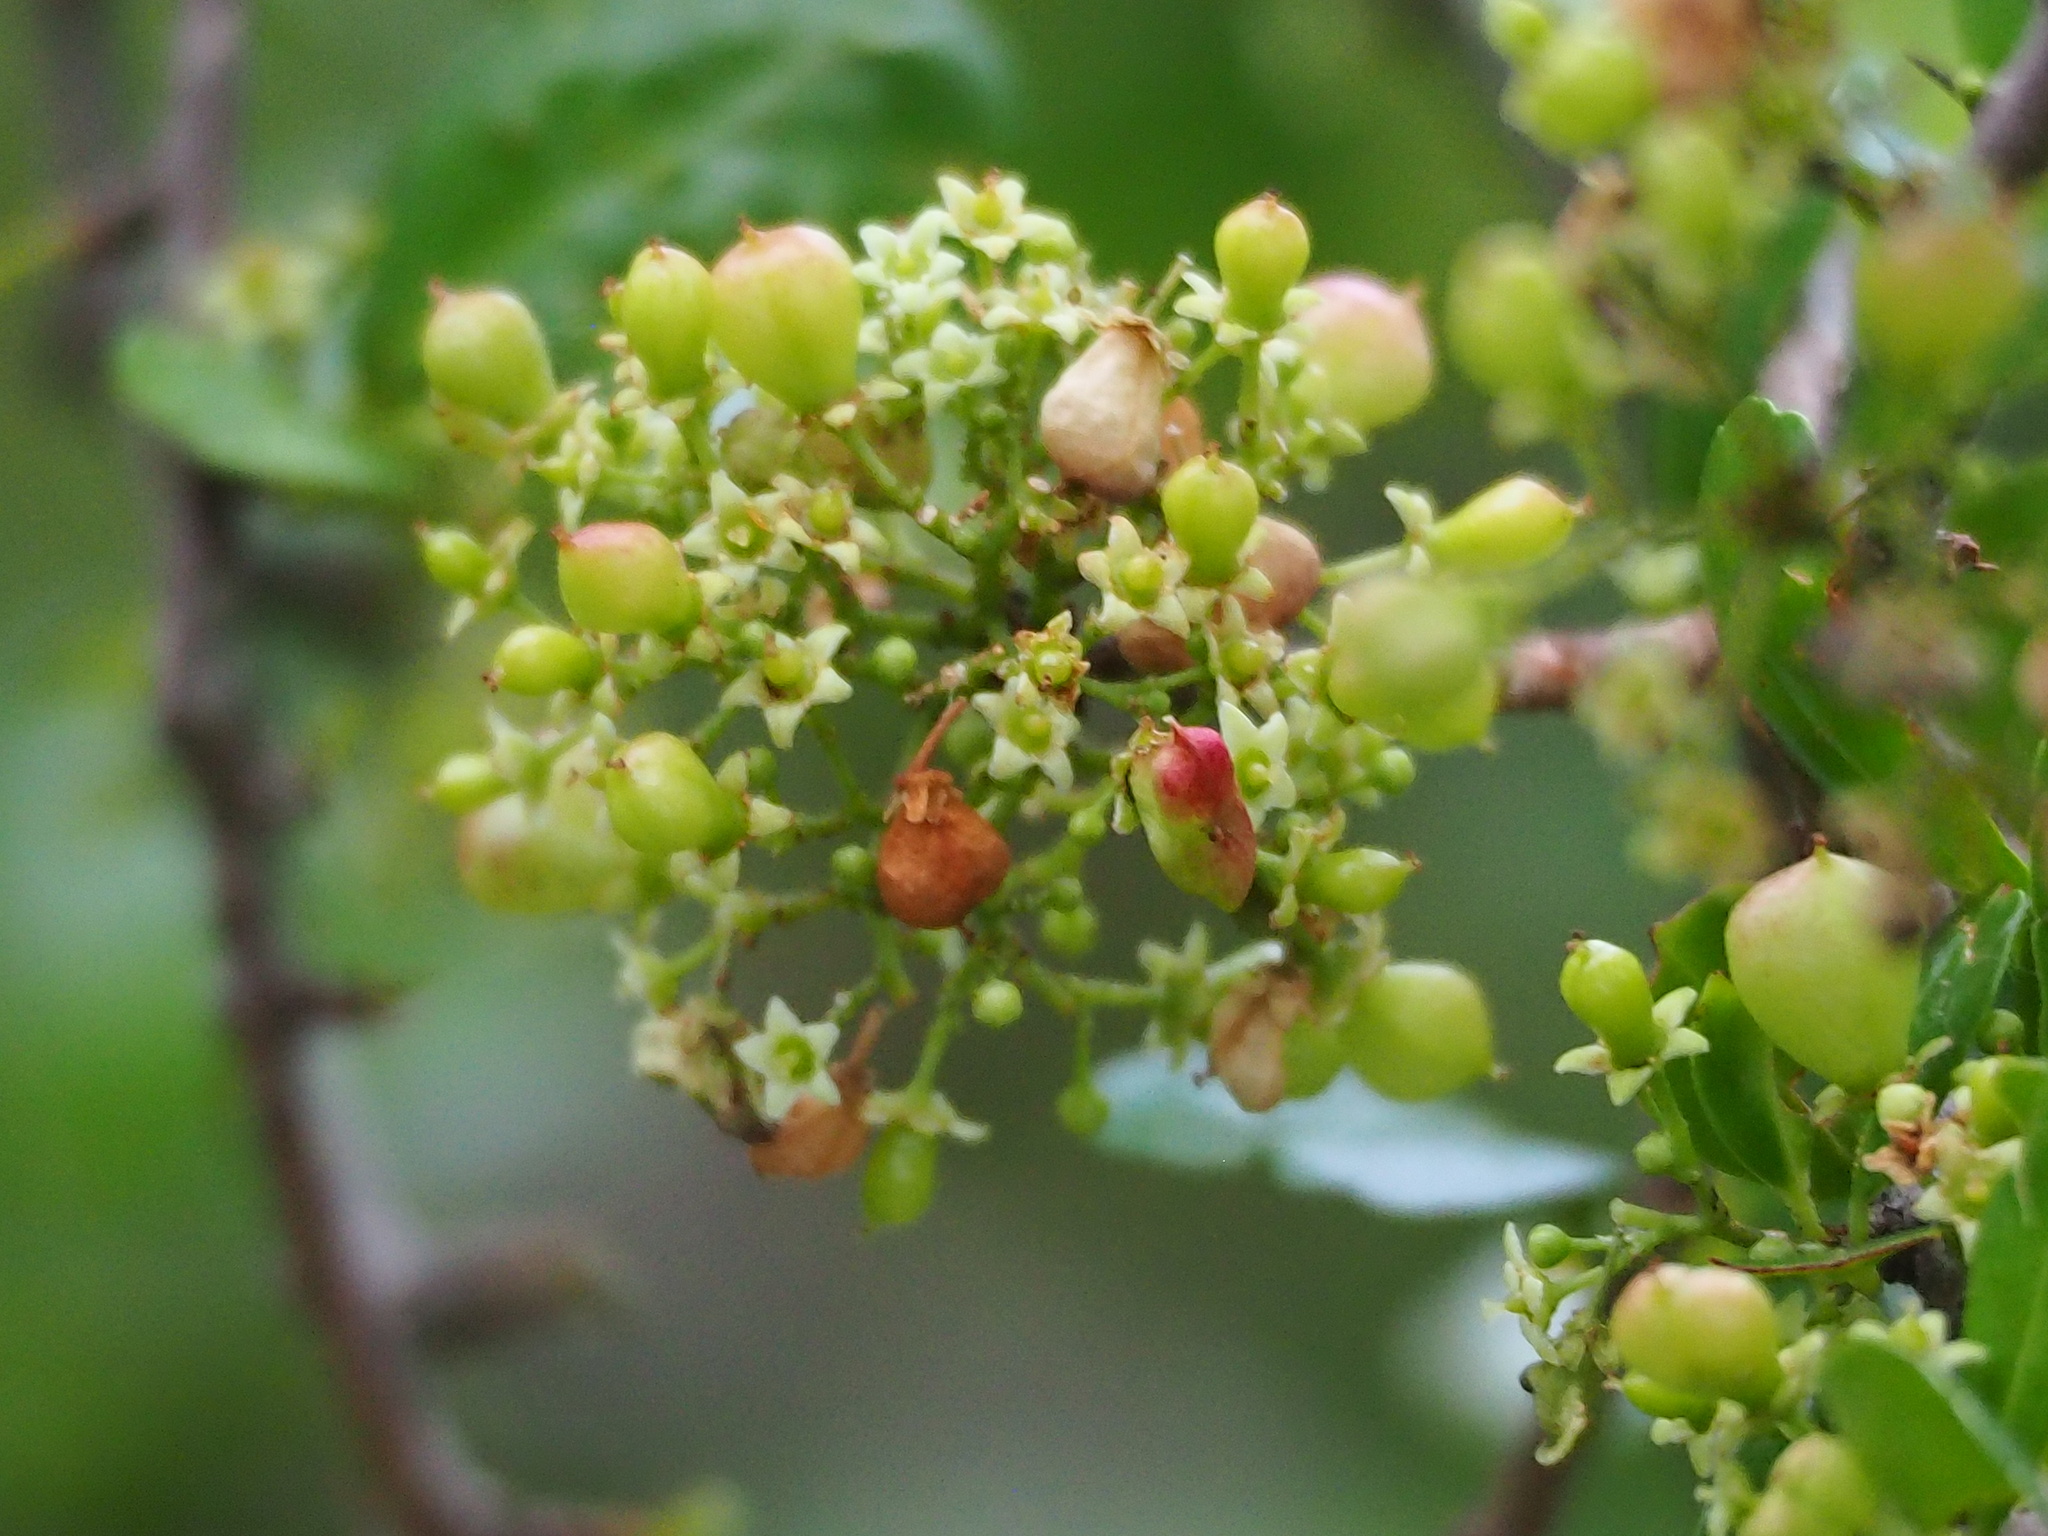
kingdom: Plantae
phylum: Tracheophyta
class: Magnoliopsida
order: Celastrales
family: Celastraceae
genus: Gymnosporia
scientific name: Gymnosporia diversifolia
